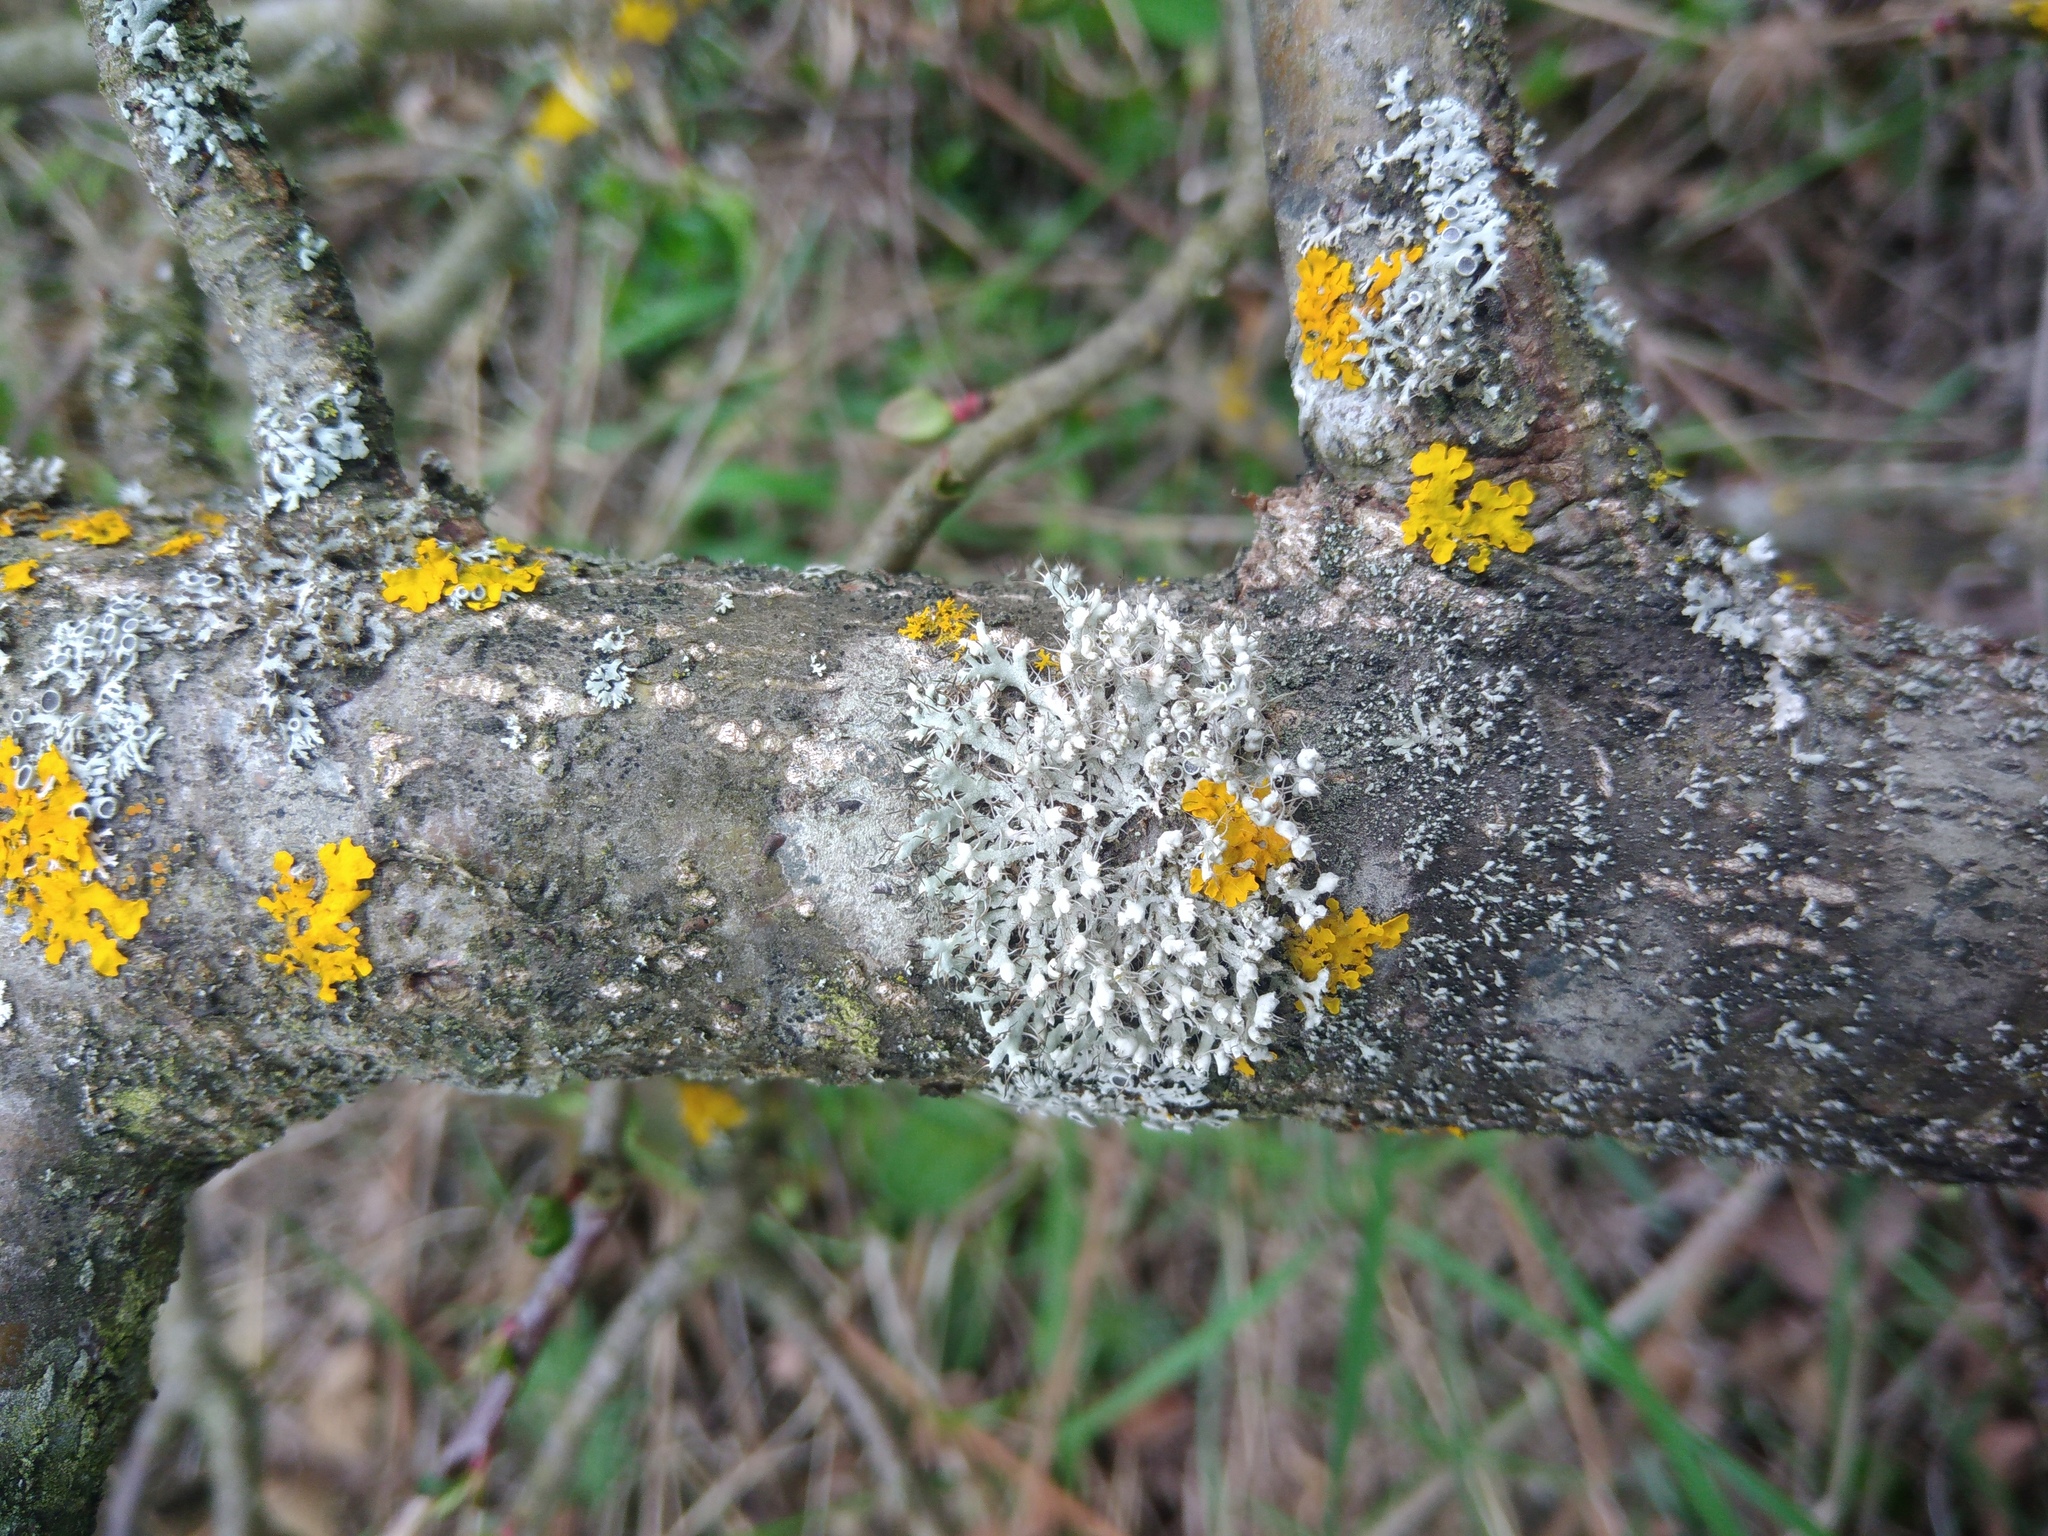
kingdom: Fungi
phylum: Ascomycota
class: Lecanoromycetes
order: Caliciales
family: Physciaceae
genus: Physcia
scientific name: Physcia adscendens
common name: Hooded rosette lichen
